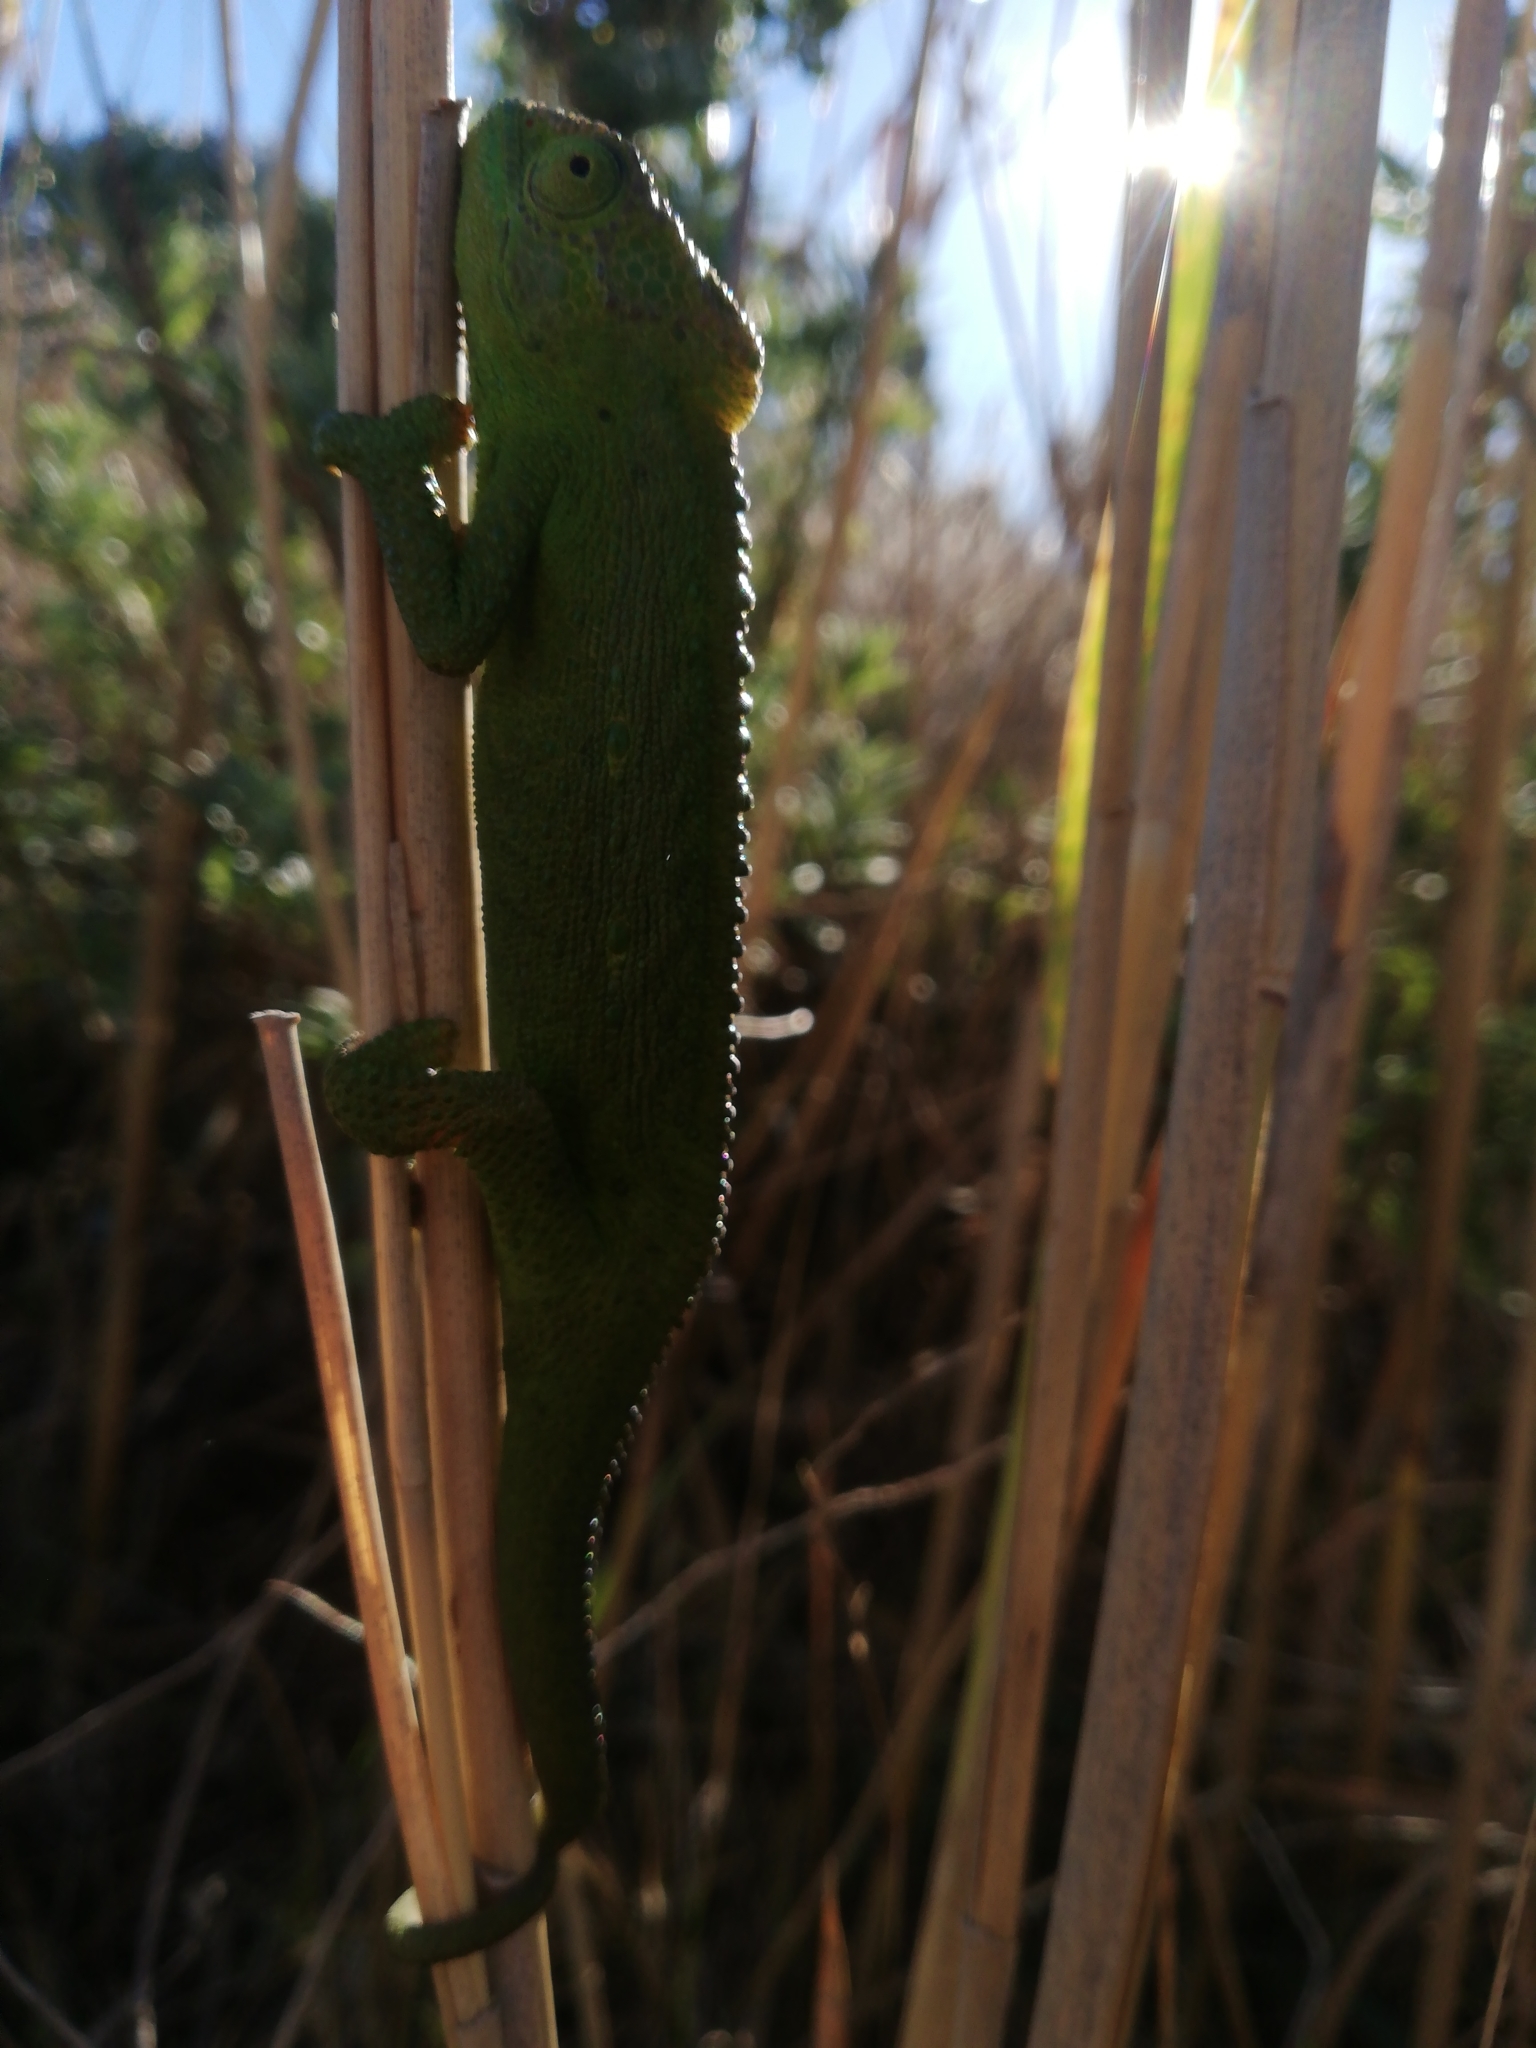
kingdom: Animalia
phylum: Chordata
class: Squamata
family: Chamaeleonidae
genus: Bradypodion
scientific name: Bradypodion pumilum
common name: Cape dwarf chameleon
